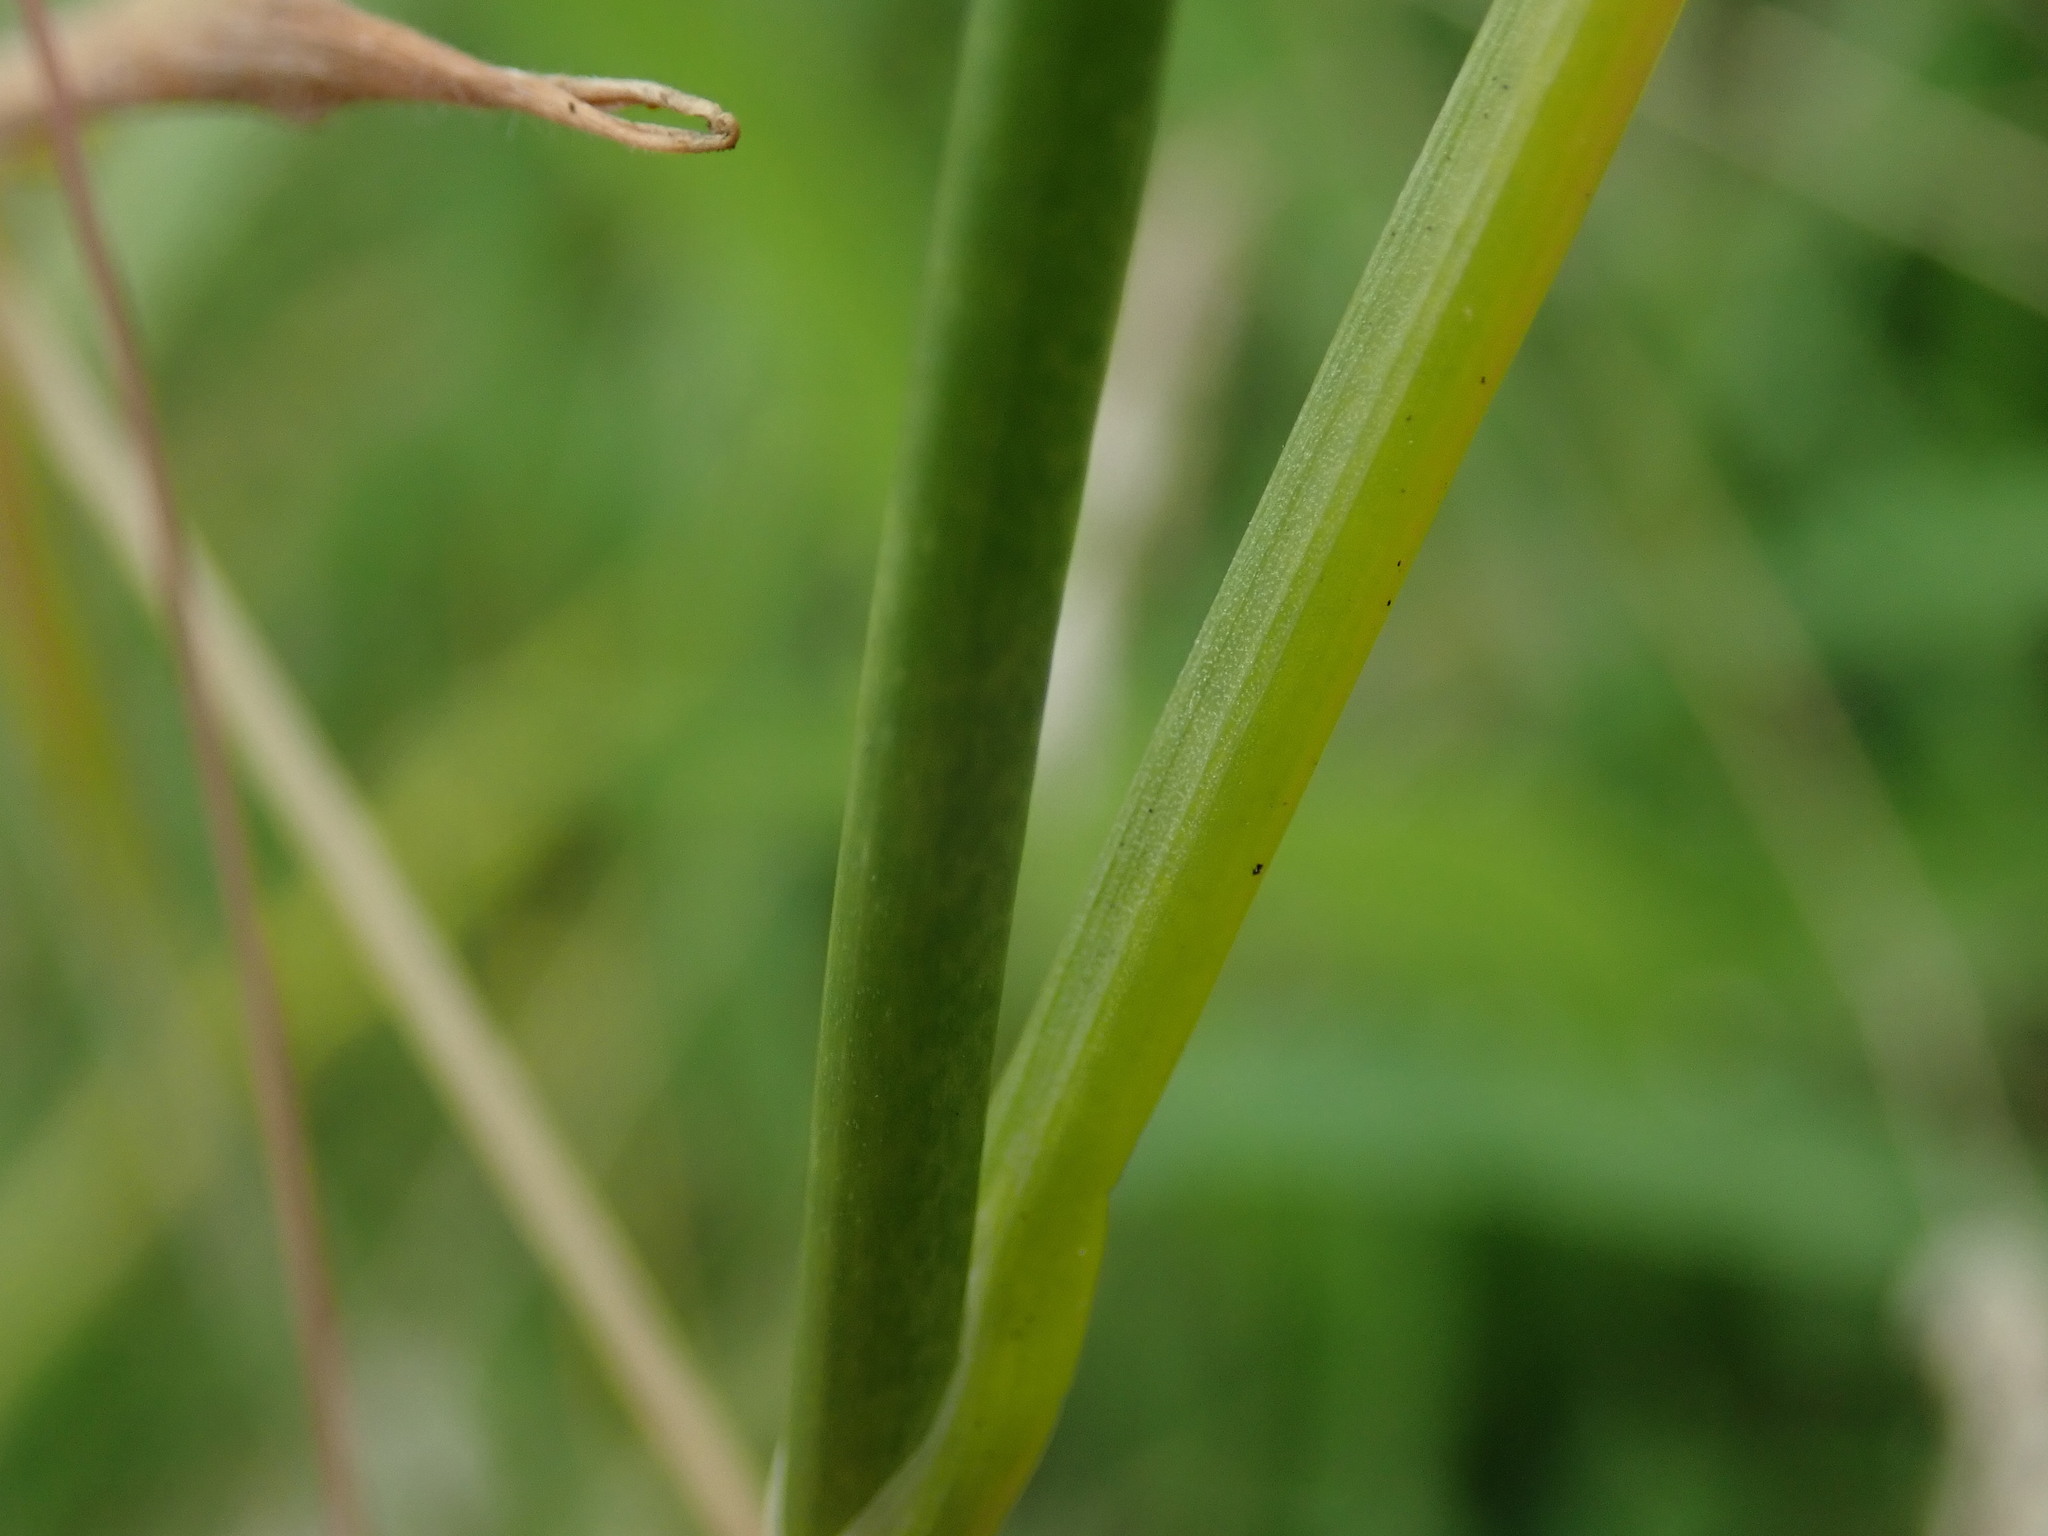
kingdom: Plantae
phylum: Tracheophyta
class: Liliopsida
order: Asparagales
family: Amaryllidaceae
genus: Allium
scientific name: Allium vineale
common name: Crow garlic
